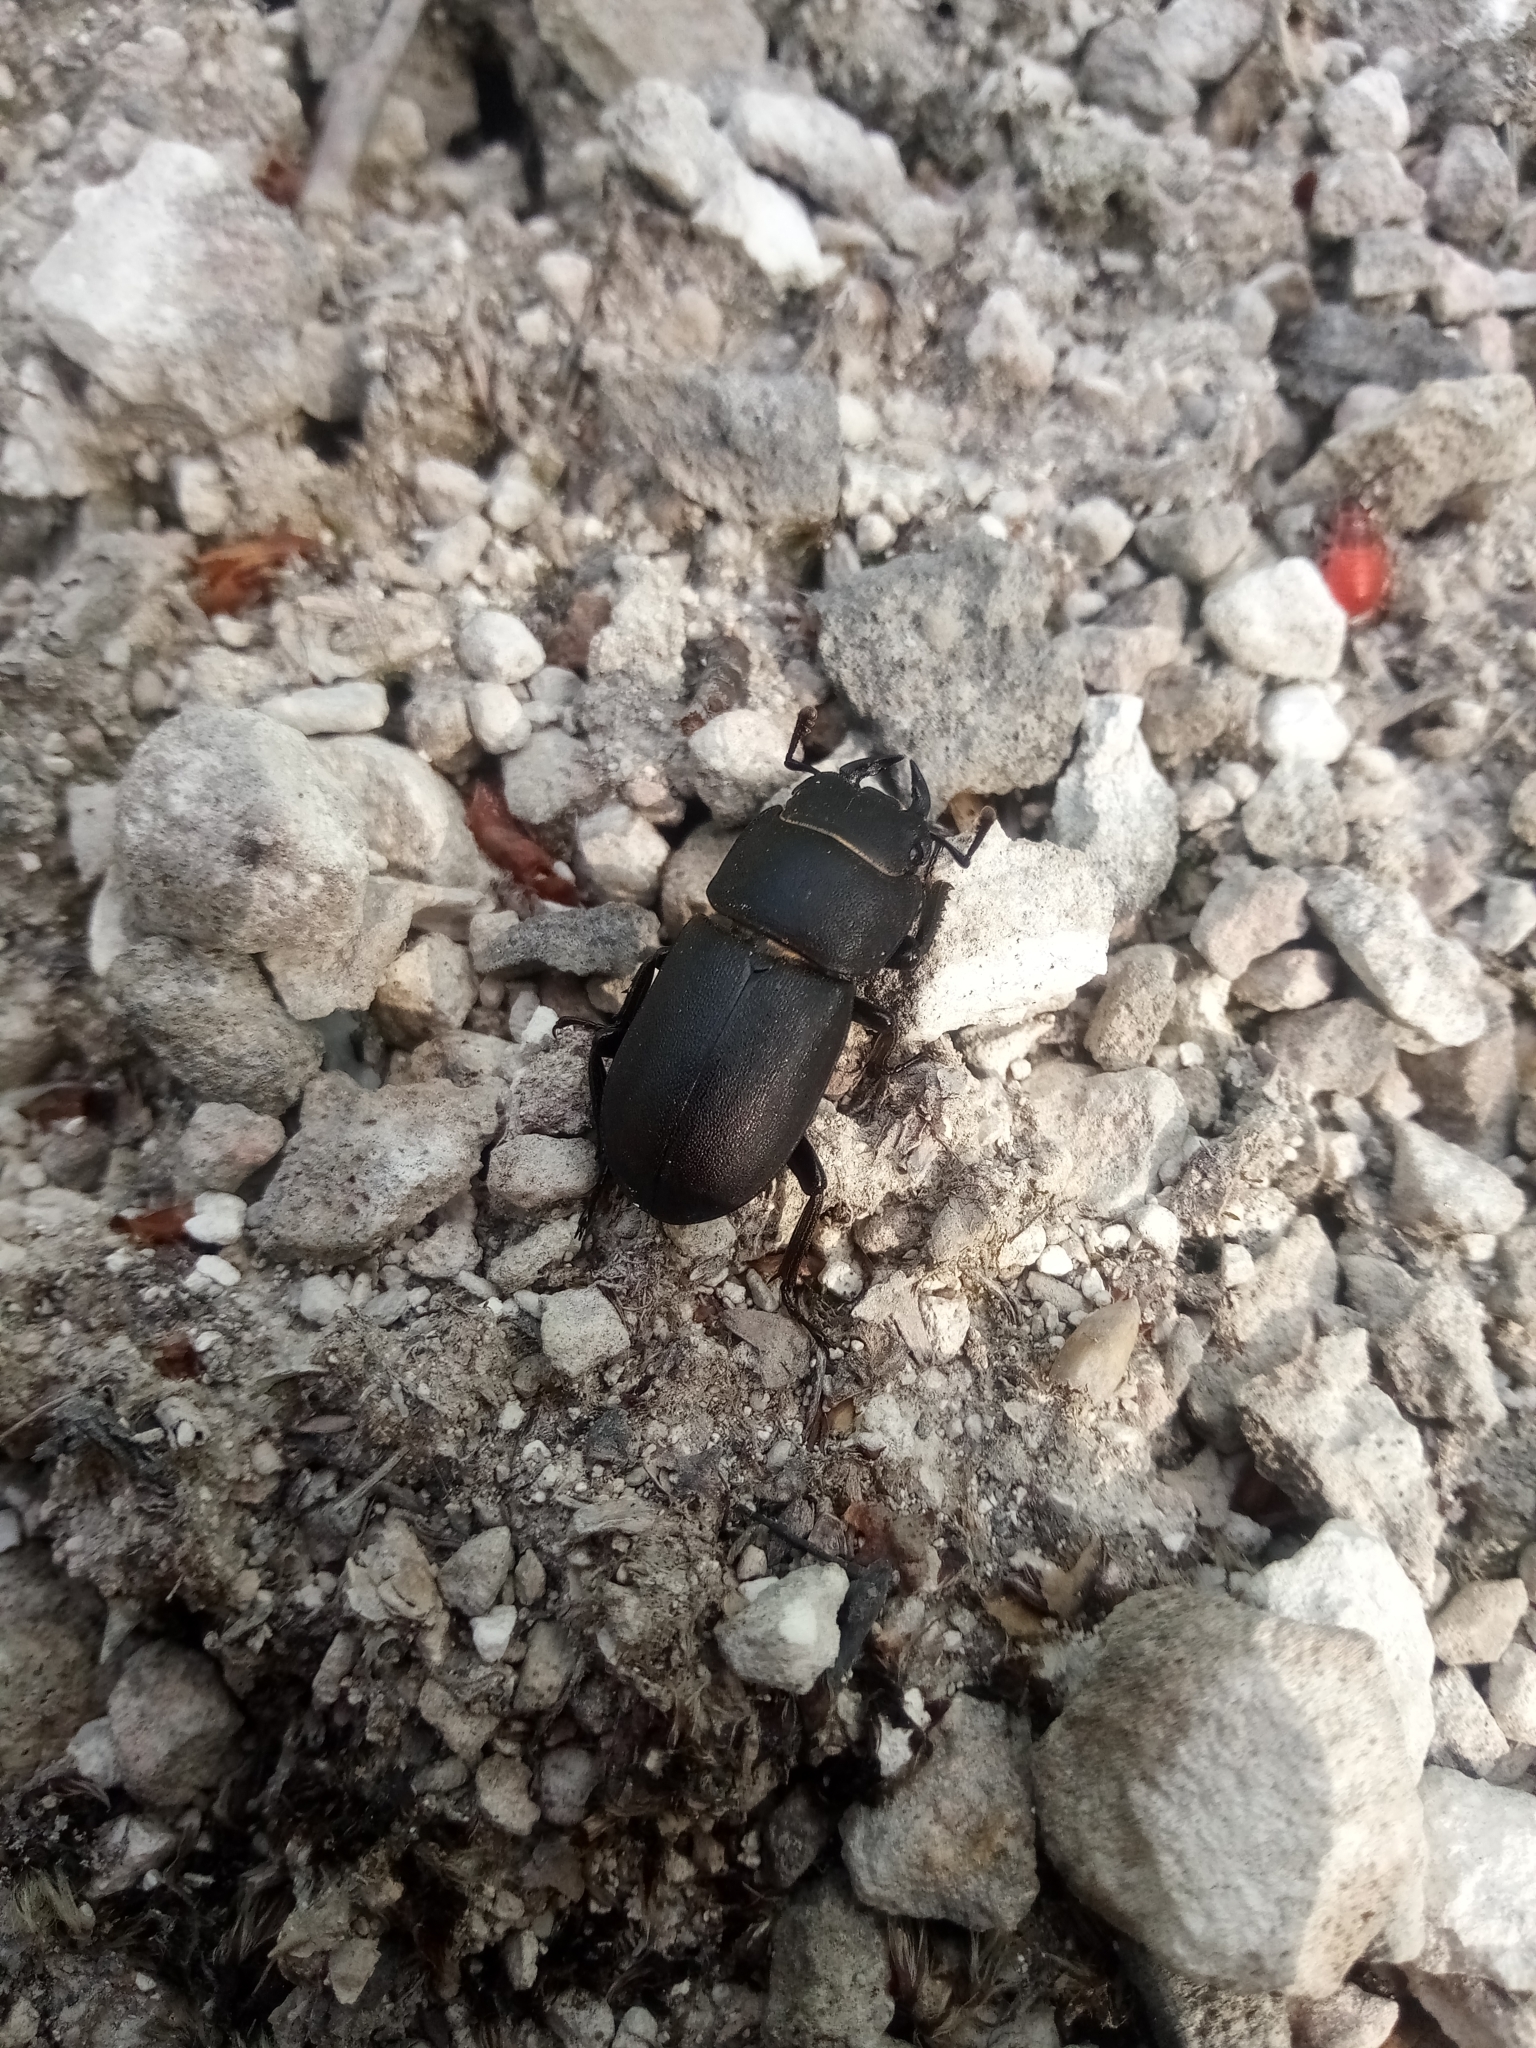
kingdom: Animalia
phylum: Arthropoda
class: Insecta
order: Coleoptera
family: Lucanidae
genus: Dorcus
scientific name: Dorcus parallelipipedus
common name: Lesser stag beetle
